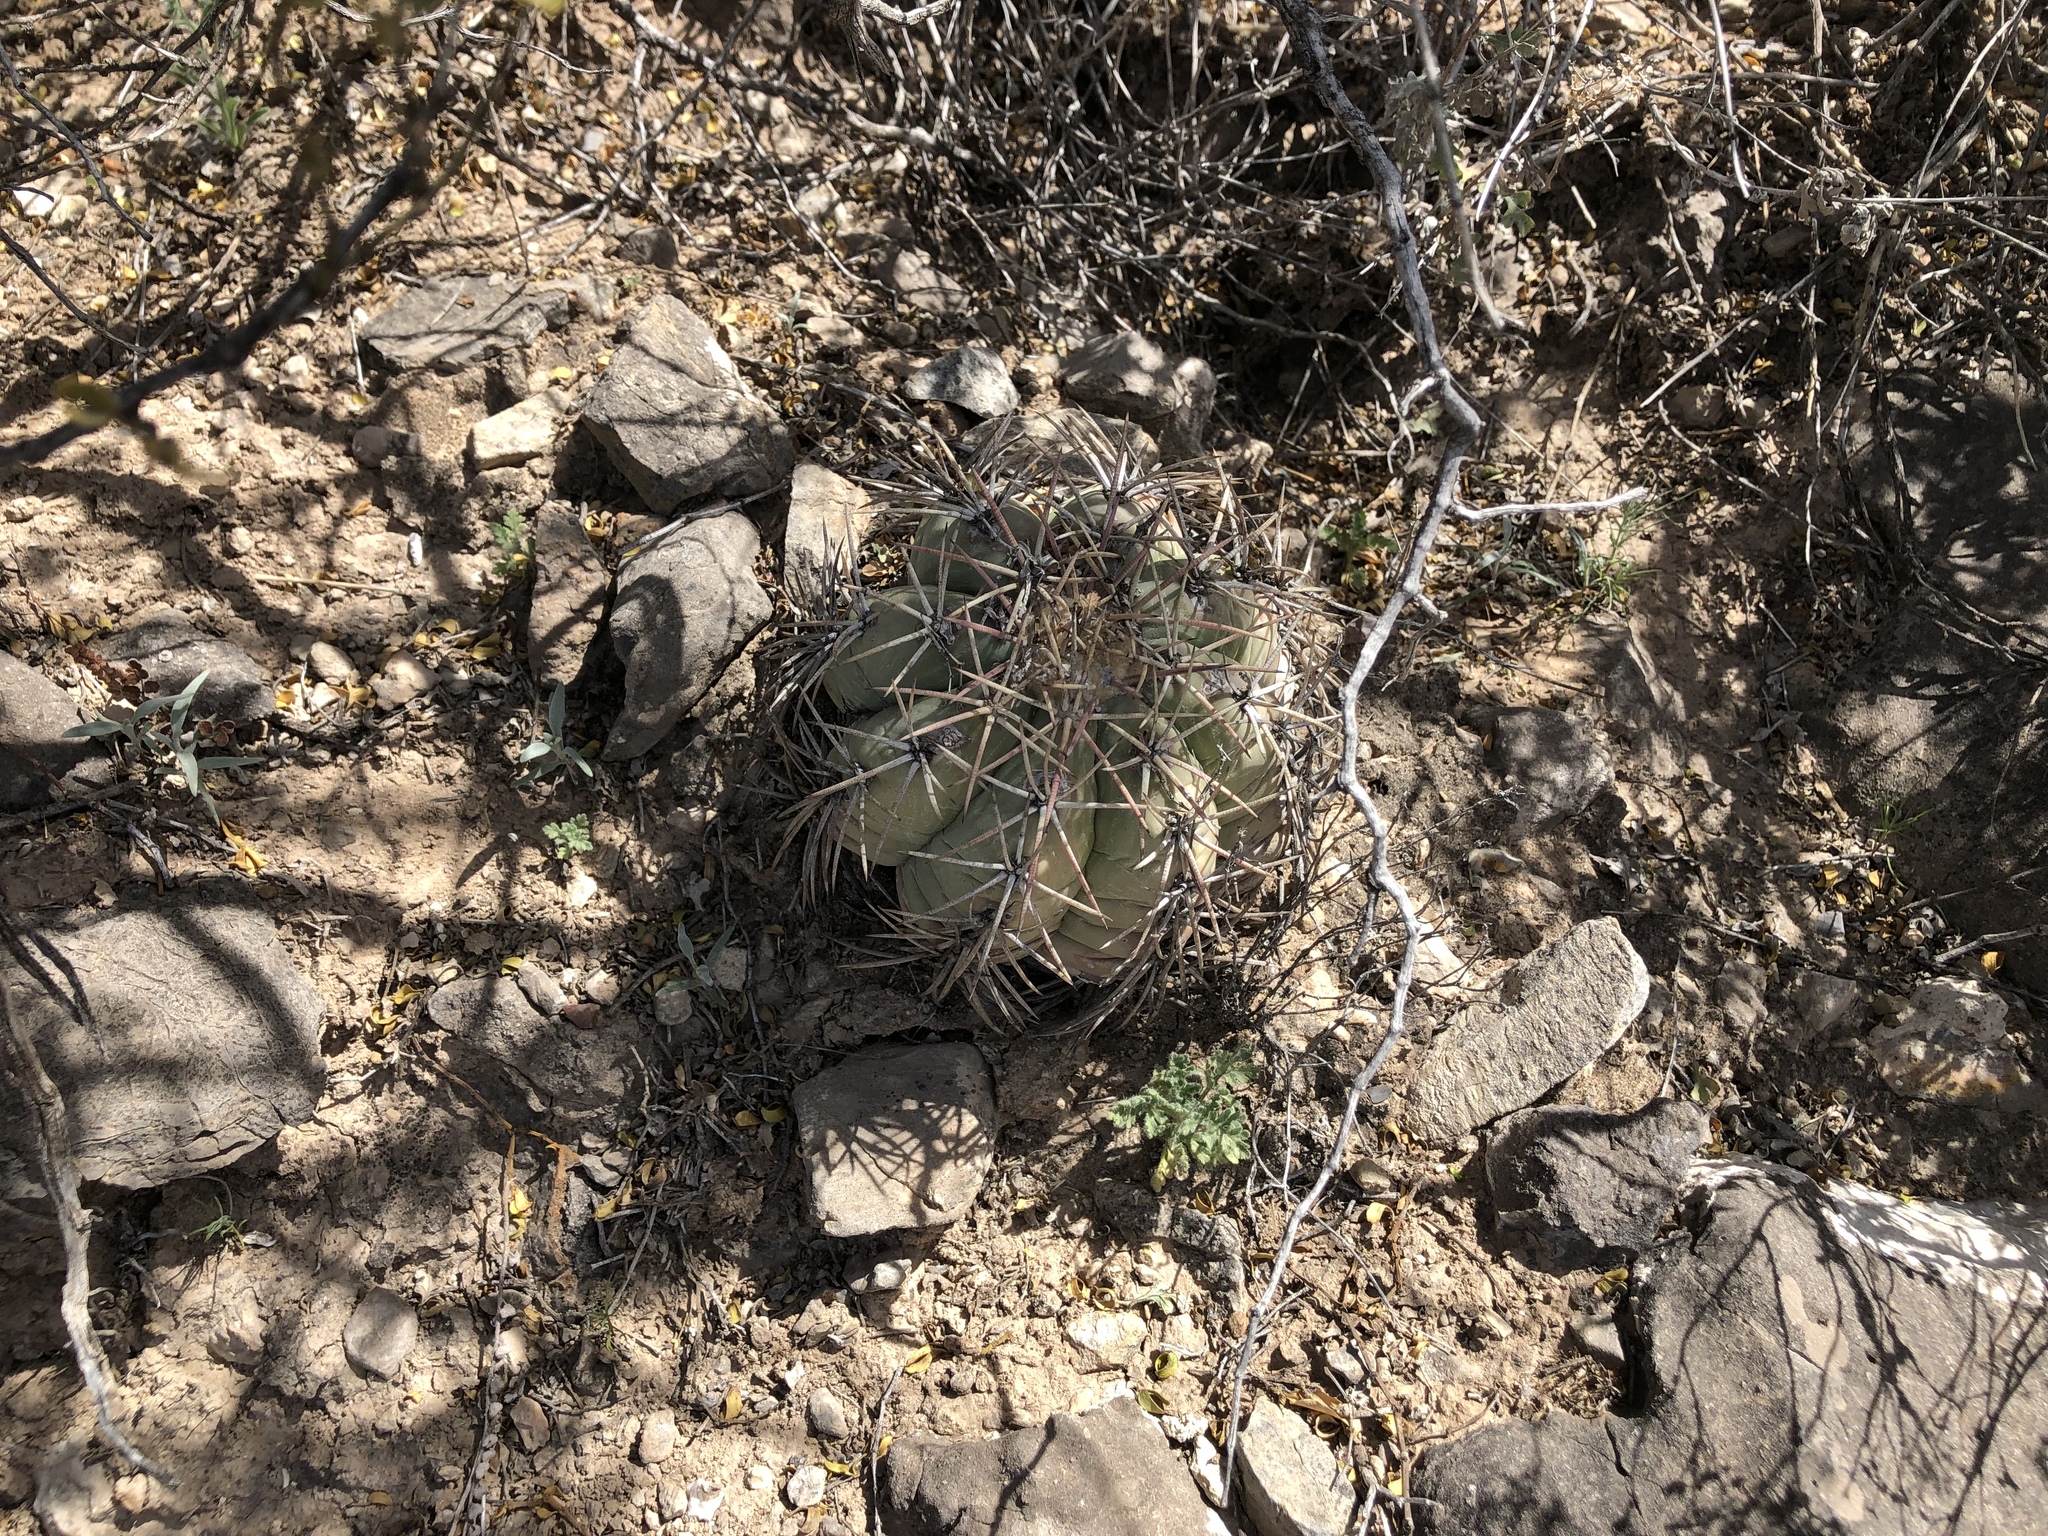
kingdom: Plantae
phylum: Tracheophyta
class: Magnoliopsida
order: Caryophyllales
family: Cactaceae
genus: Echinocactus
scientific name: Echinocactus horizonthalonius
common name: Devilshead
